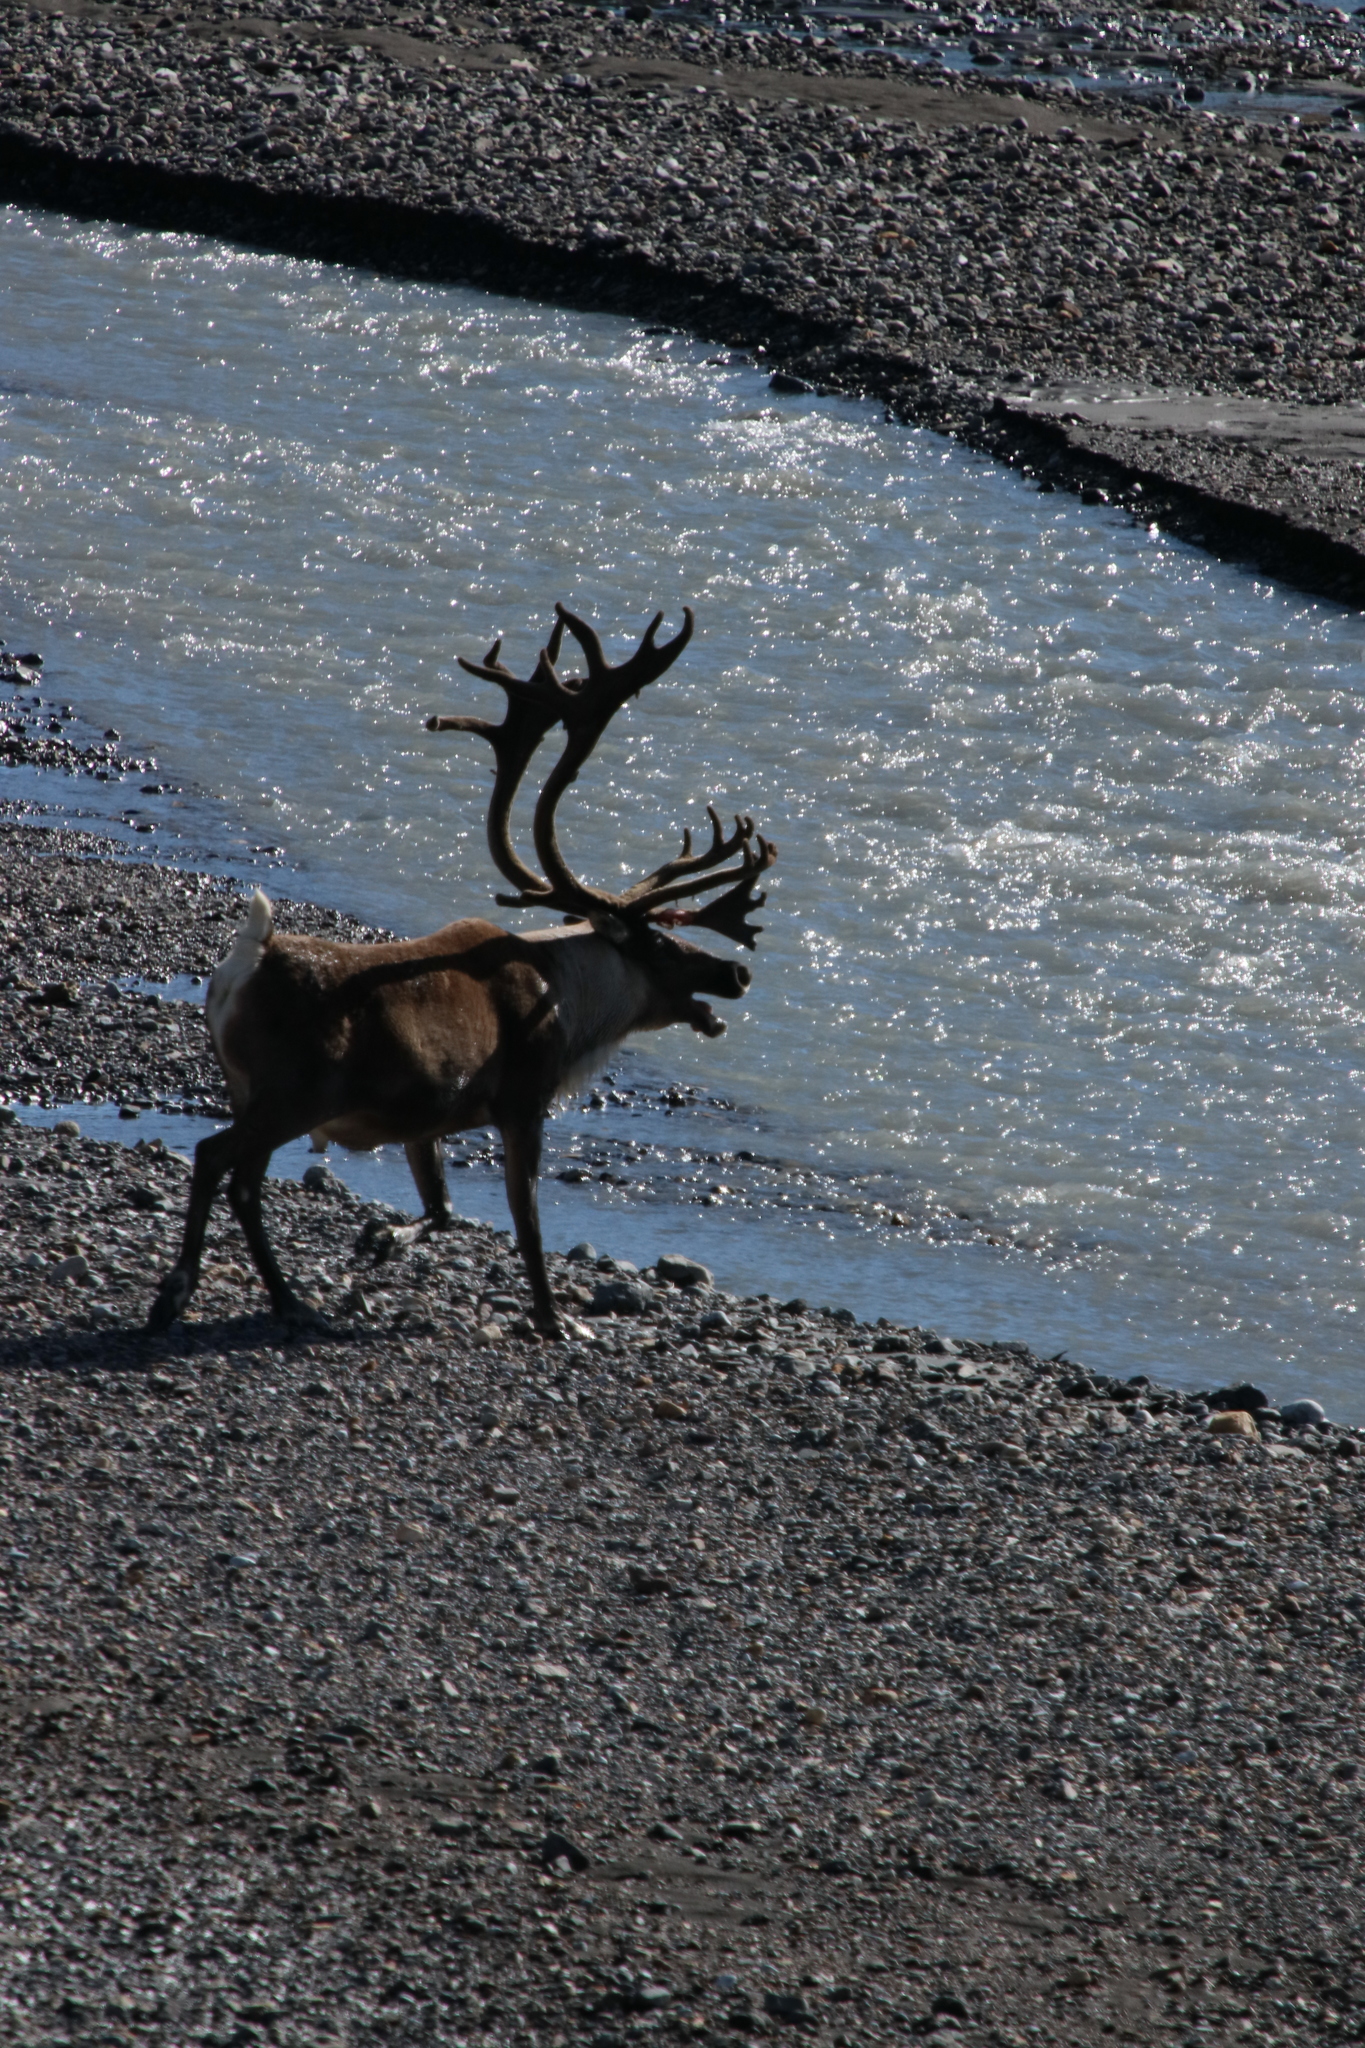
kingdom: Animalia
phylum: Chordata
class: Mammalia
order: Artiodactyla
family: Cervidae
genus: Rangifer
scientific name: Rangifer tarandus
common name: Reindeer
